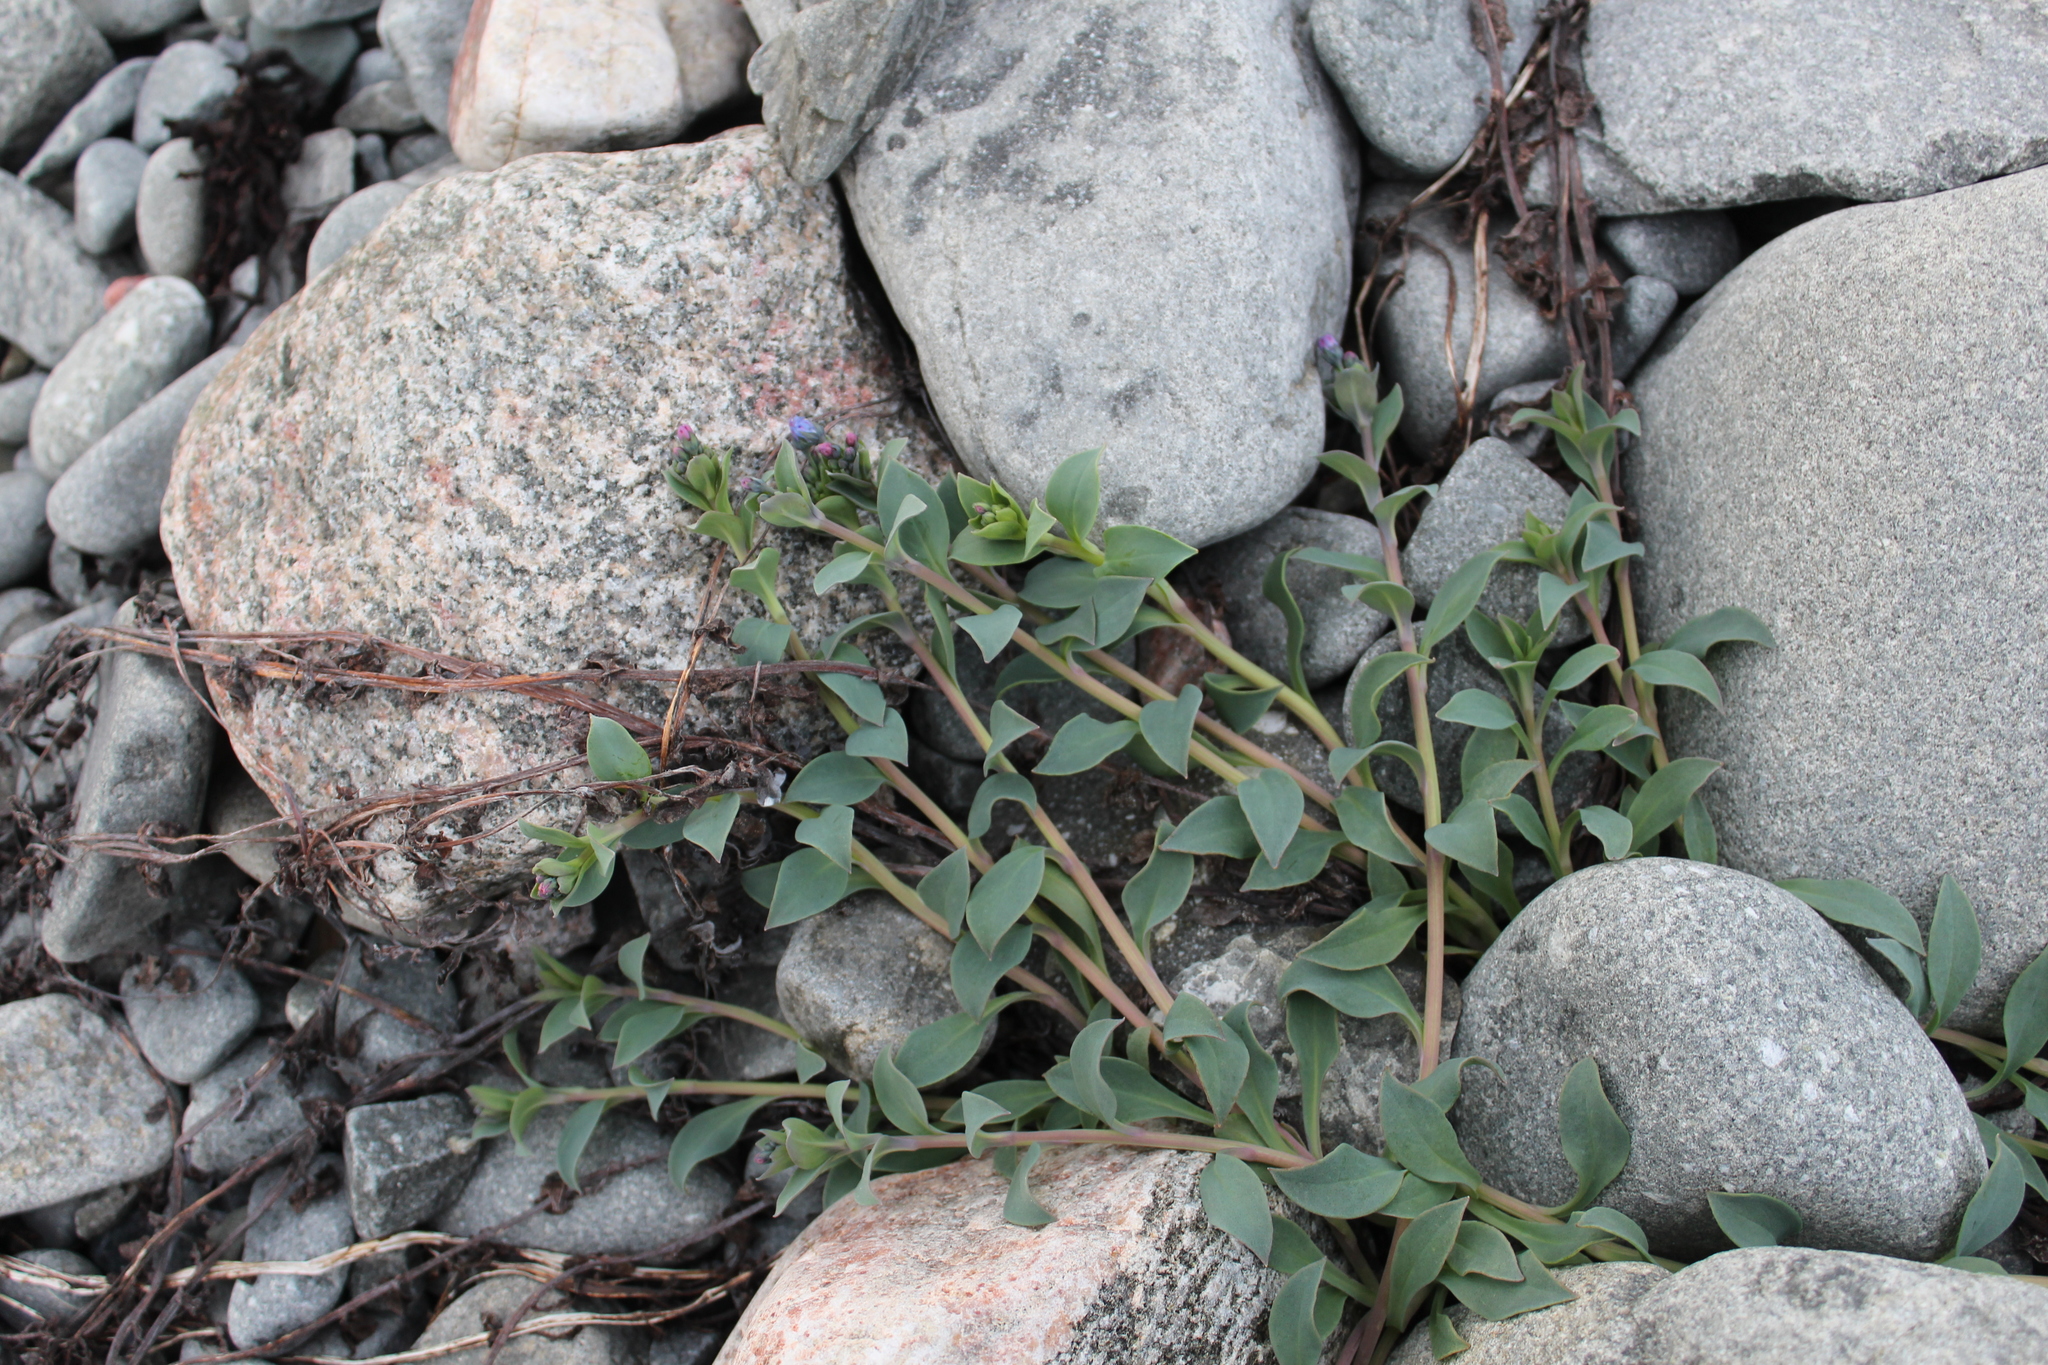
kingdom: Plantae
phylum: Tracheophyta
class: Magnoliopsida
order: Boraginales
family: Boraginaceae
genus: Mertensia
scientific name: Mertensia maritima
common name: Oysterplant
